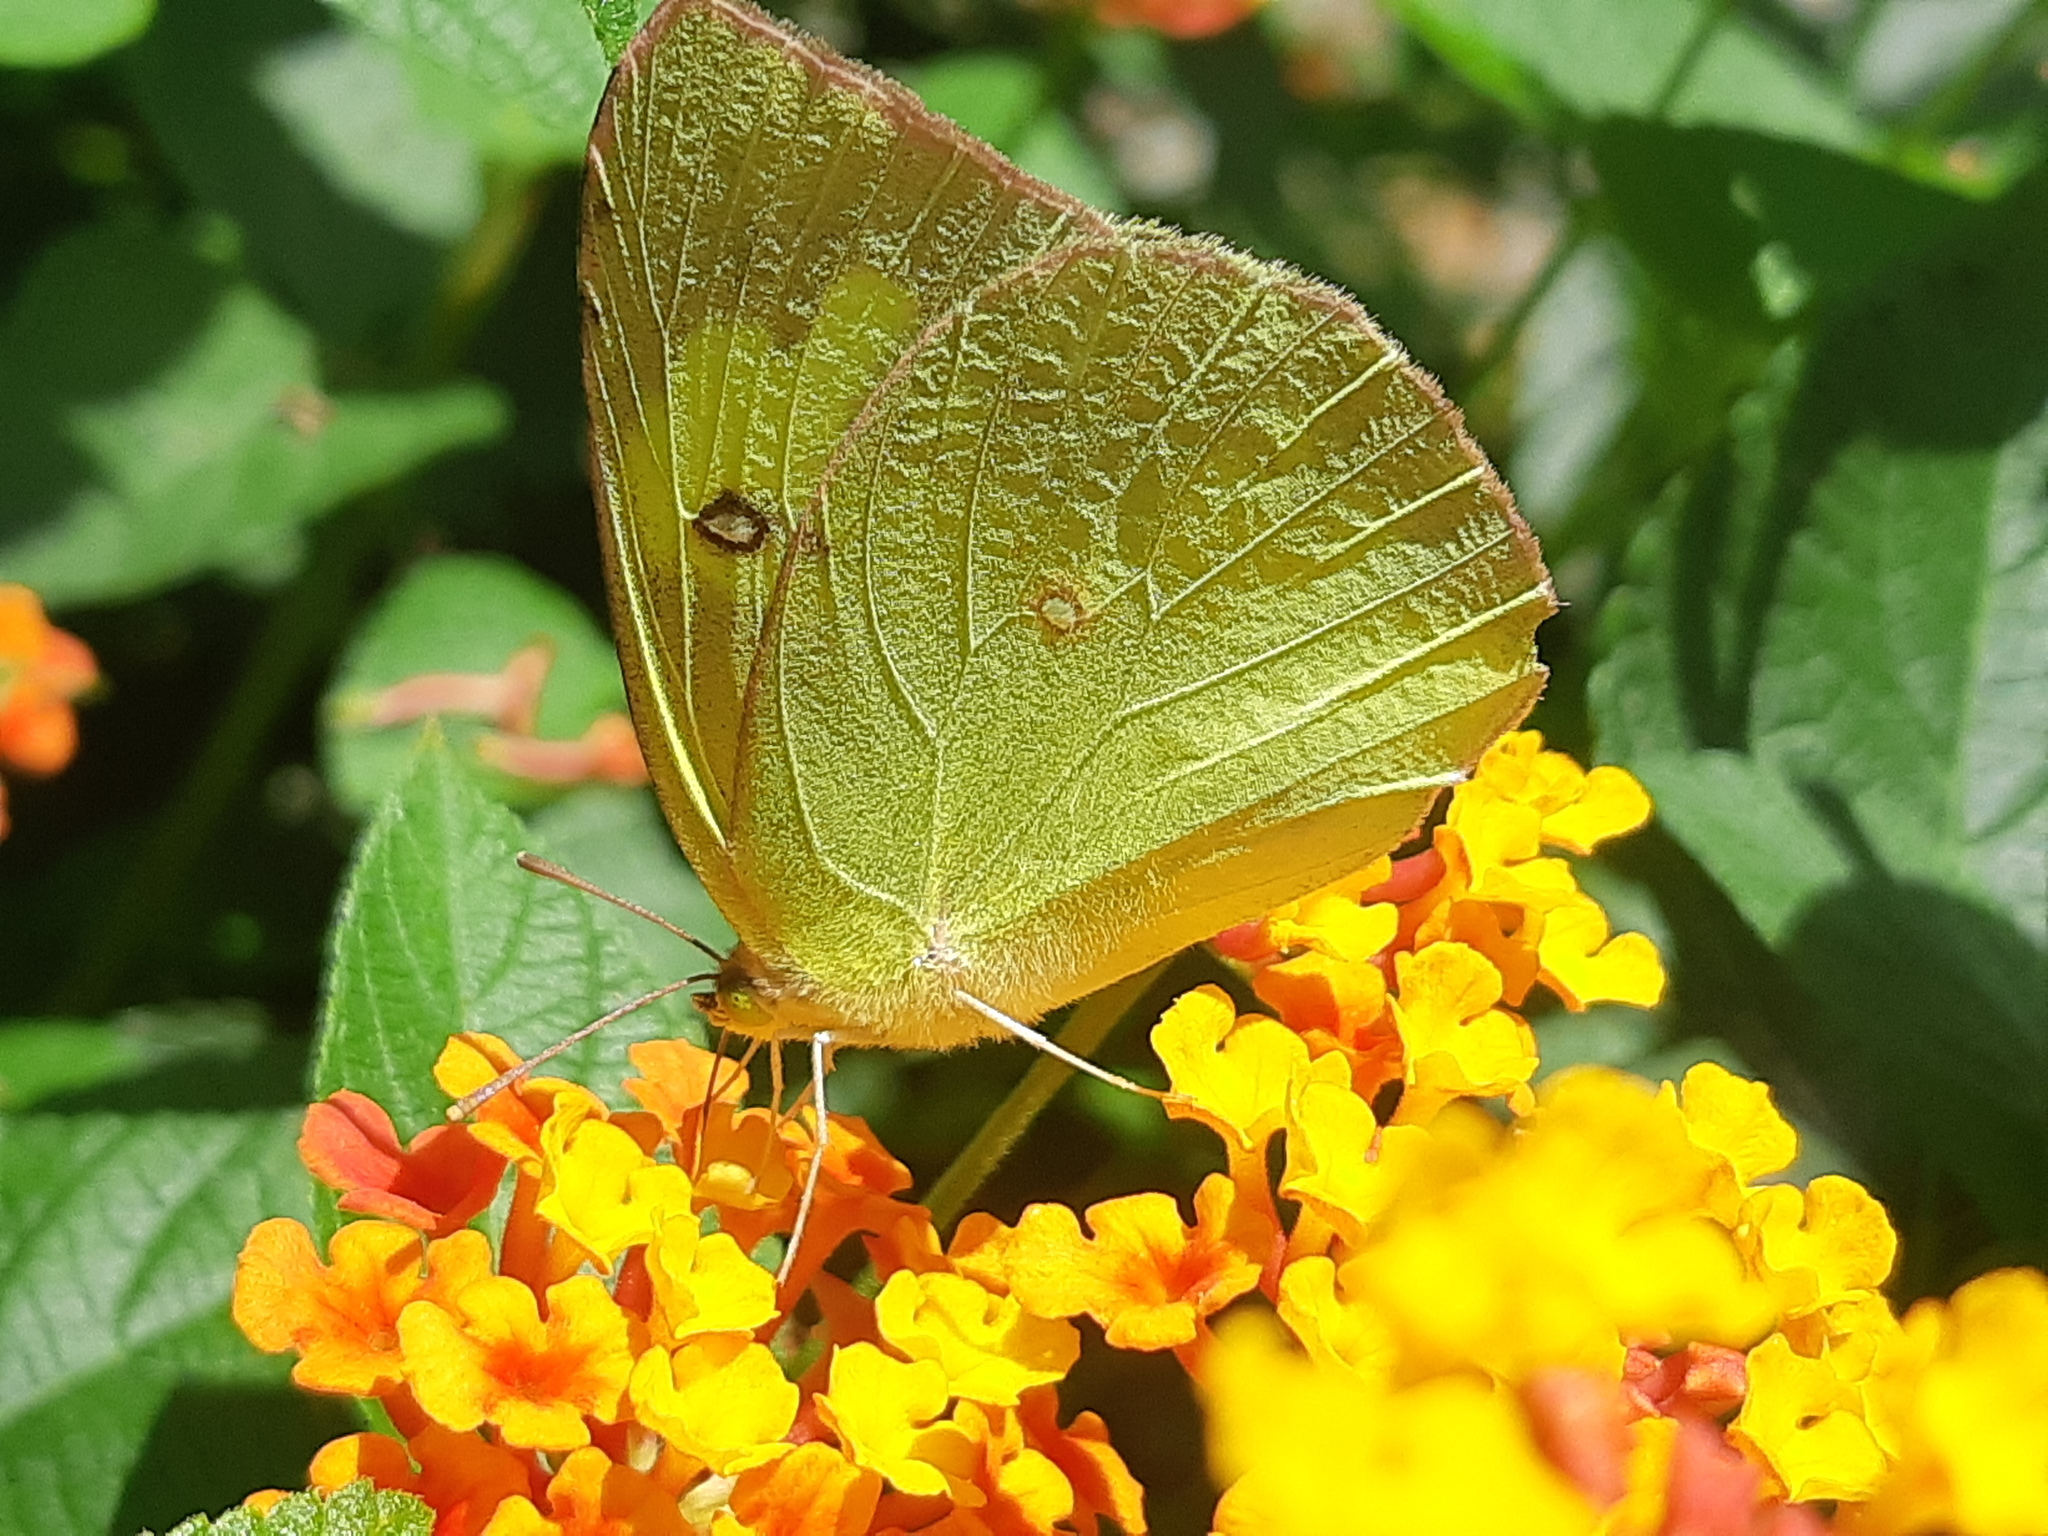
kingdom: Animalia
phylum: Arthropoda
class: Insecta
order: Lepidoptera
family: Pieridae
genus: Zerene
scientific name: Zerene cesonia
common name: Southern dogface
